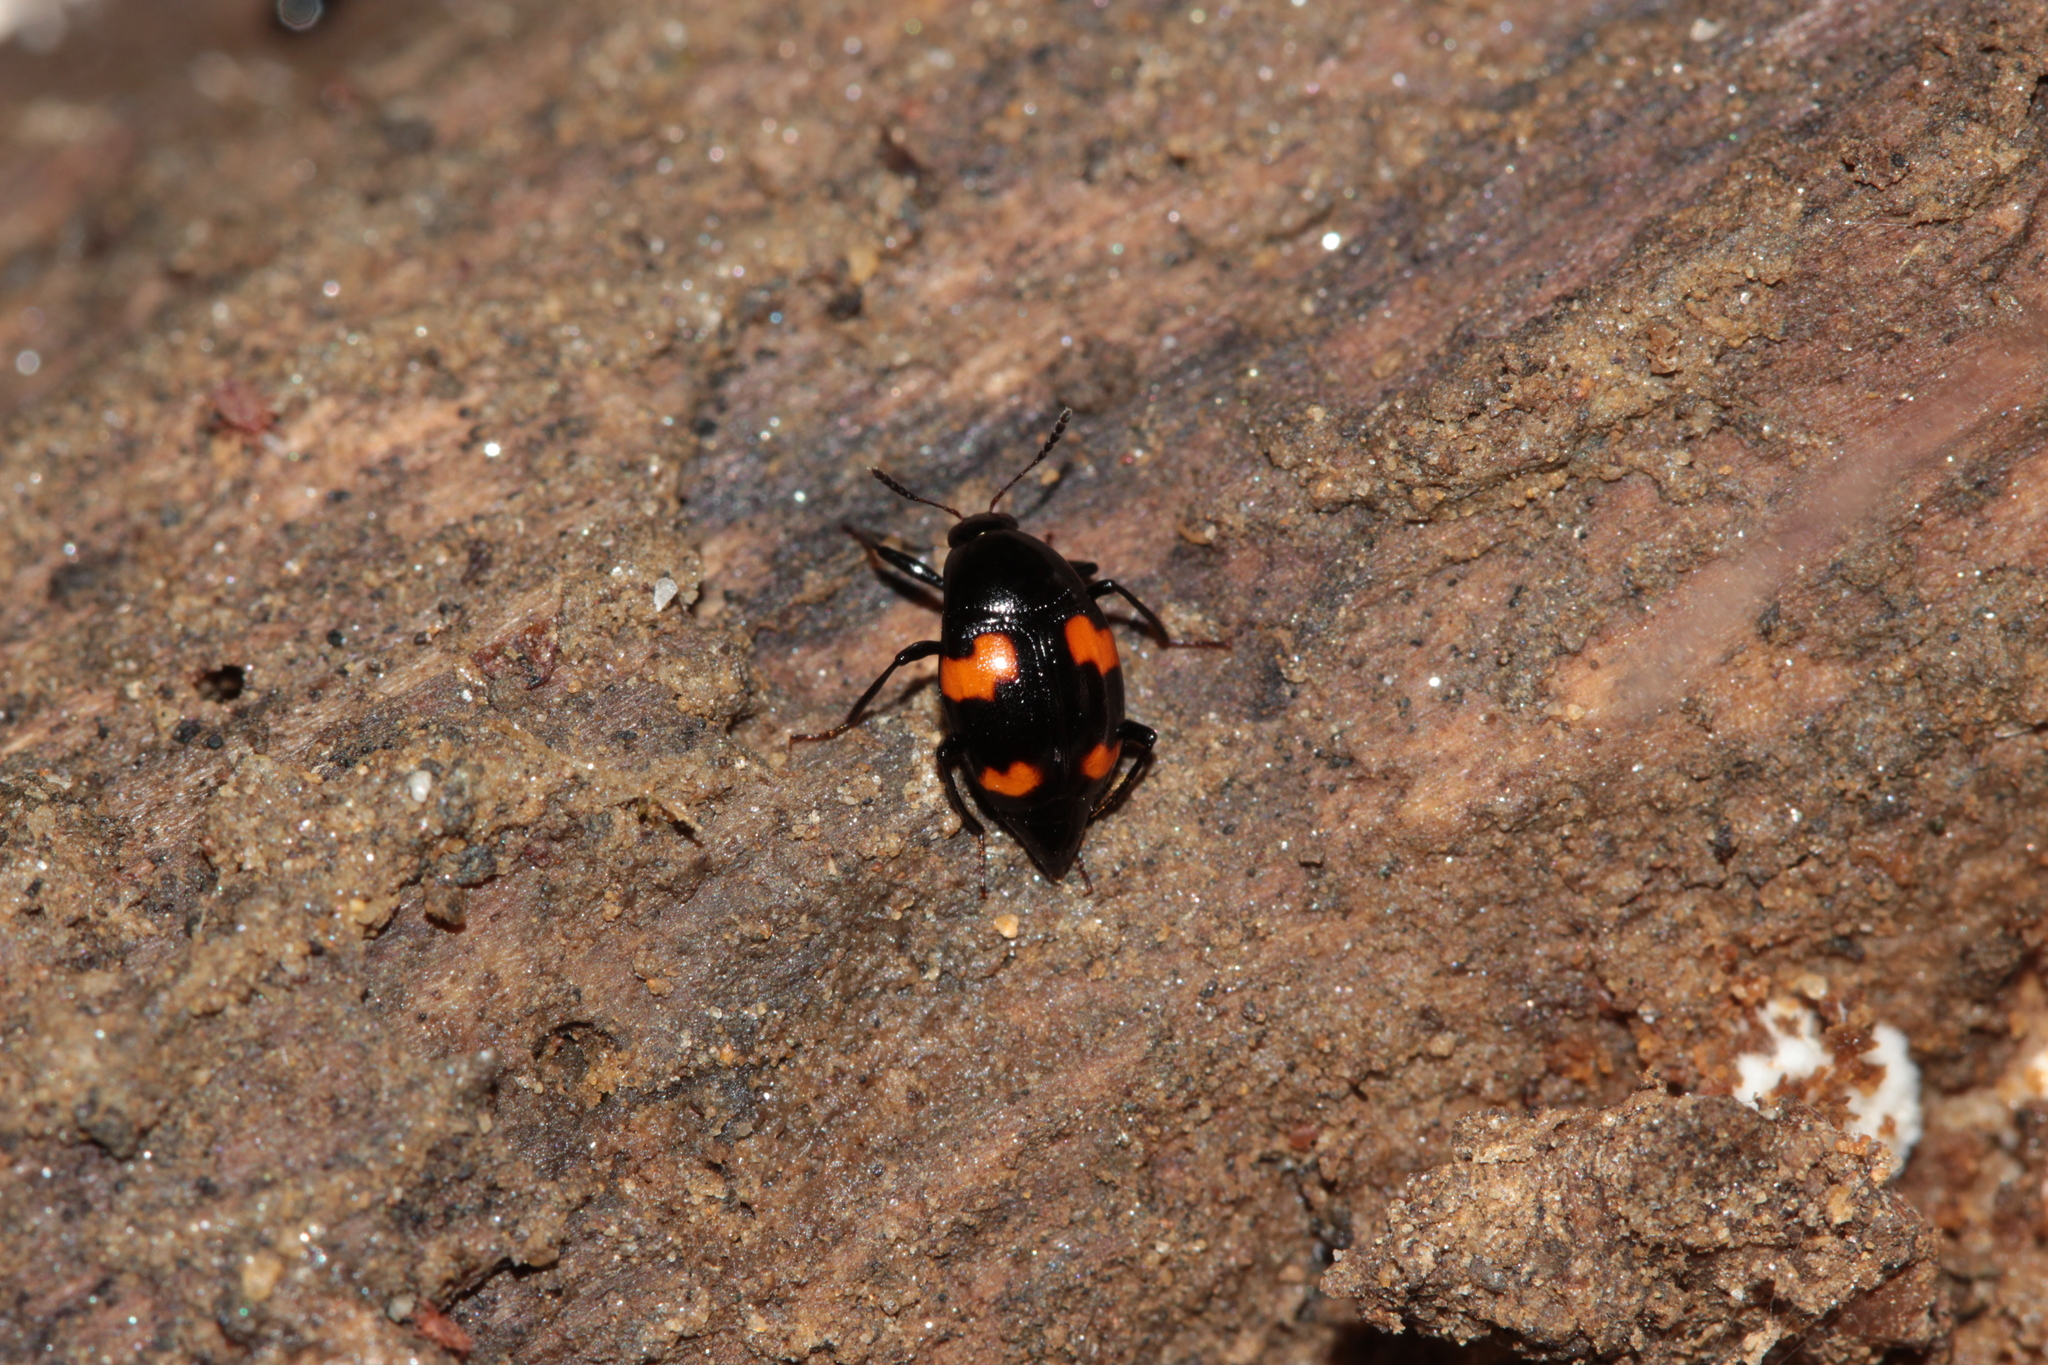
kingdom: Animalia
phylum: Arthropoda
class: Insecta
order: Coleoptera
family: Staphylinidae
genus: Scaphidium
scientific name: Scaphidium quadrimaculatum
